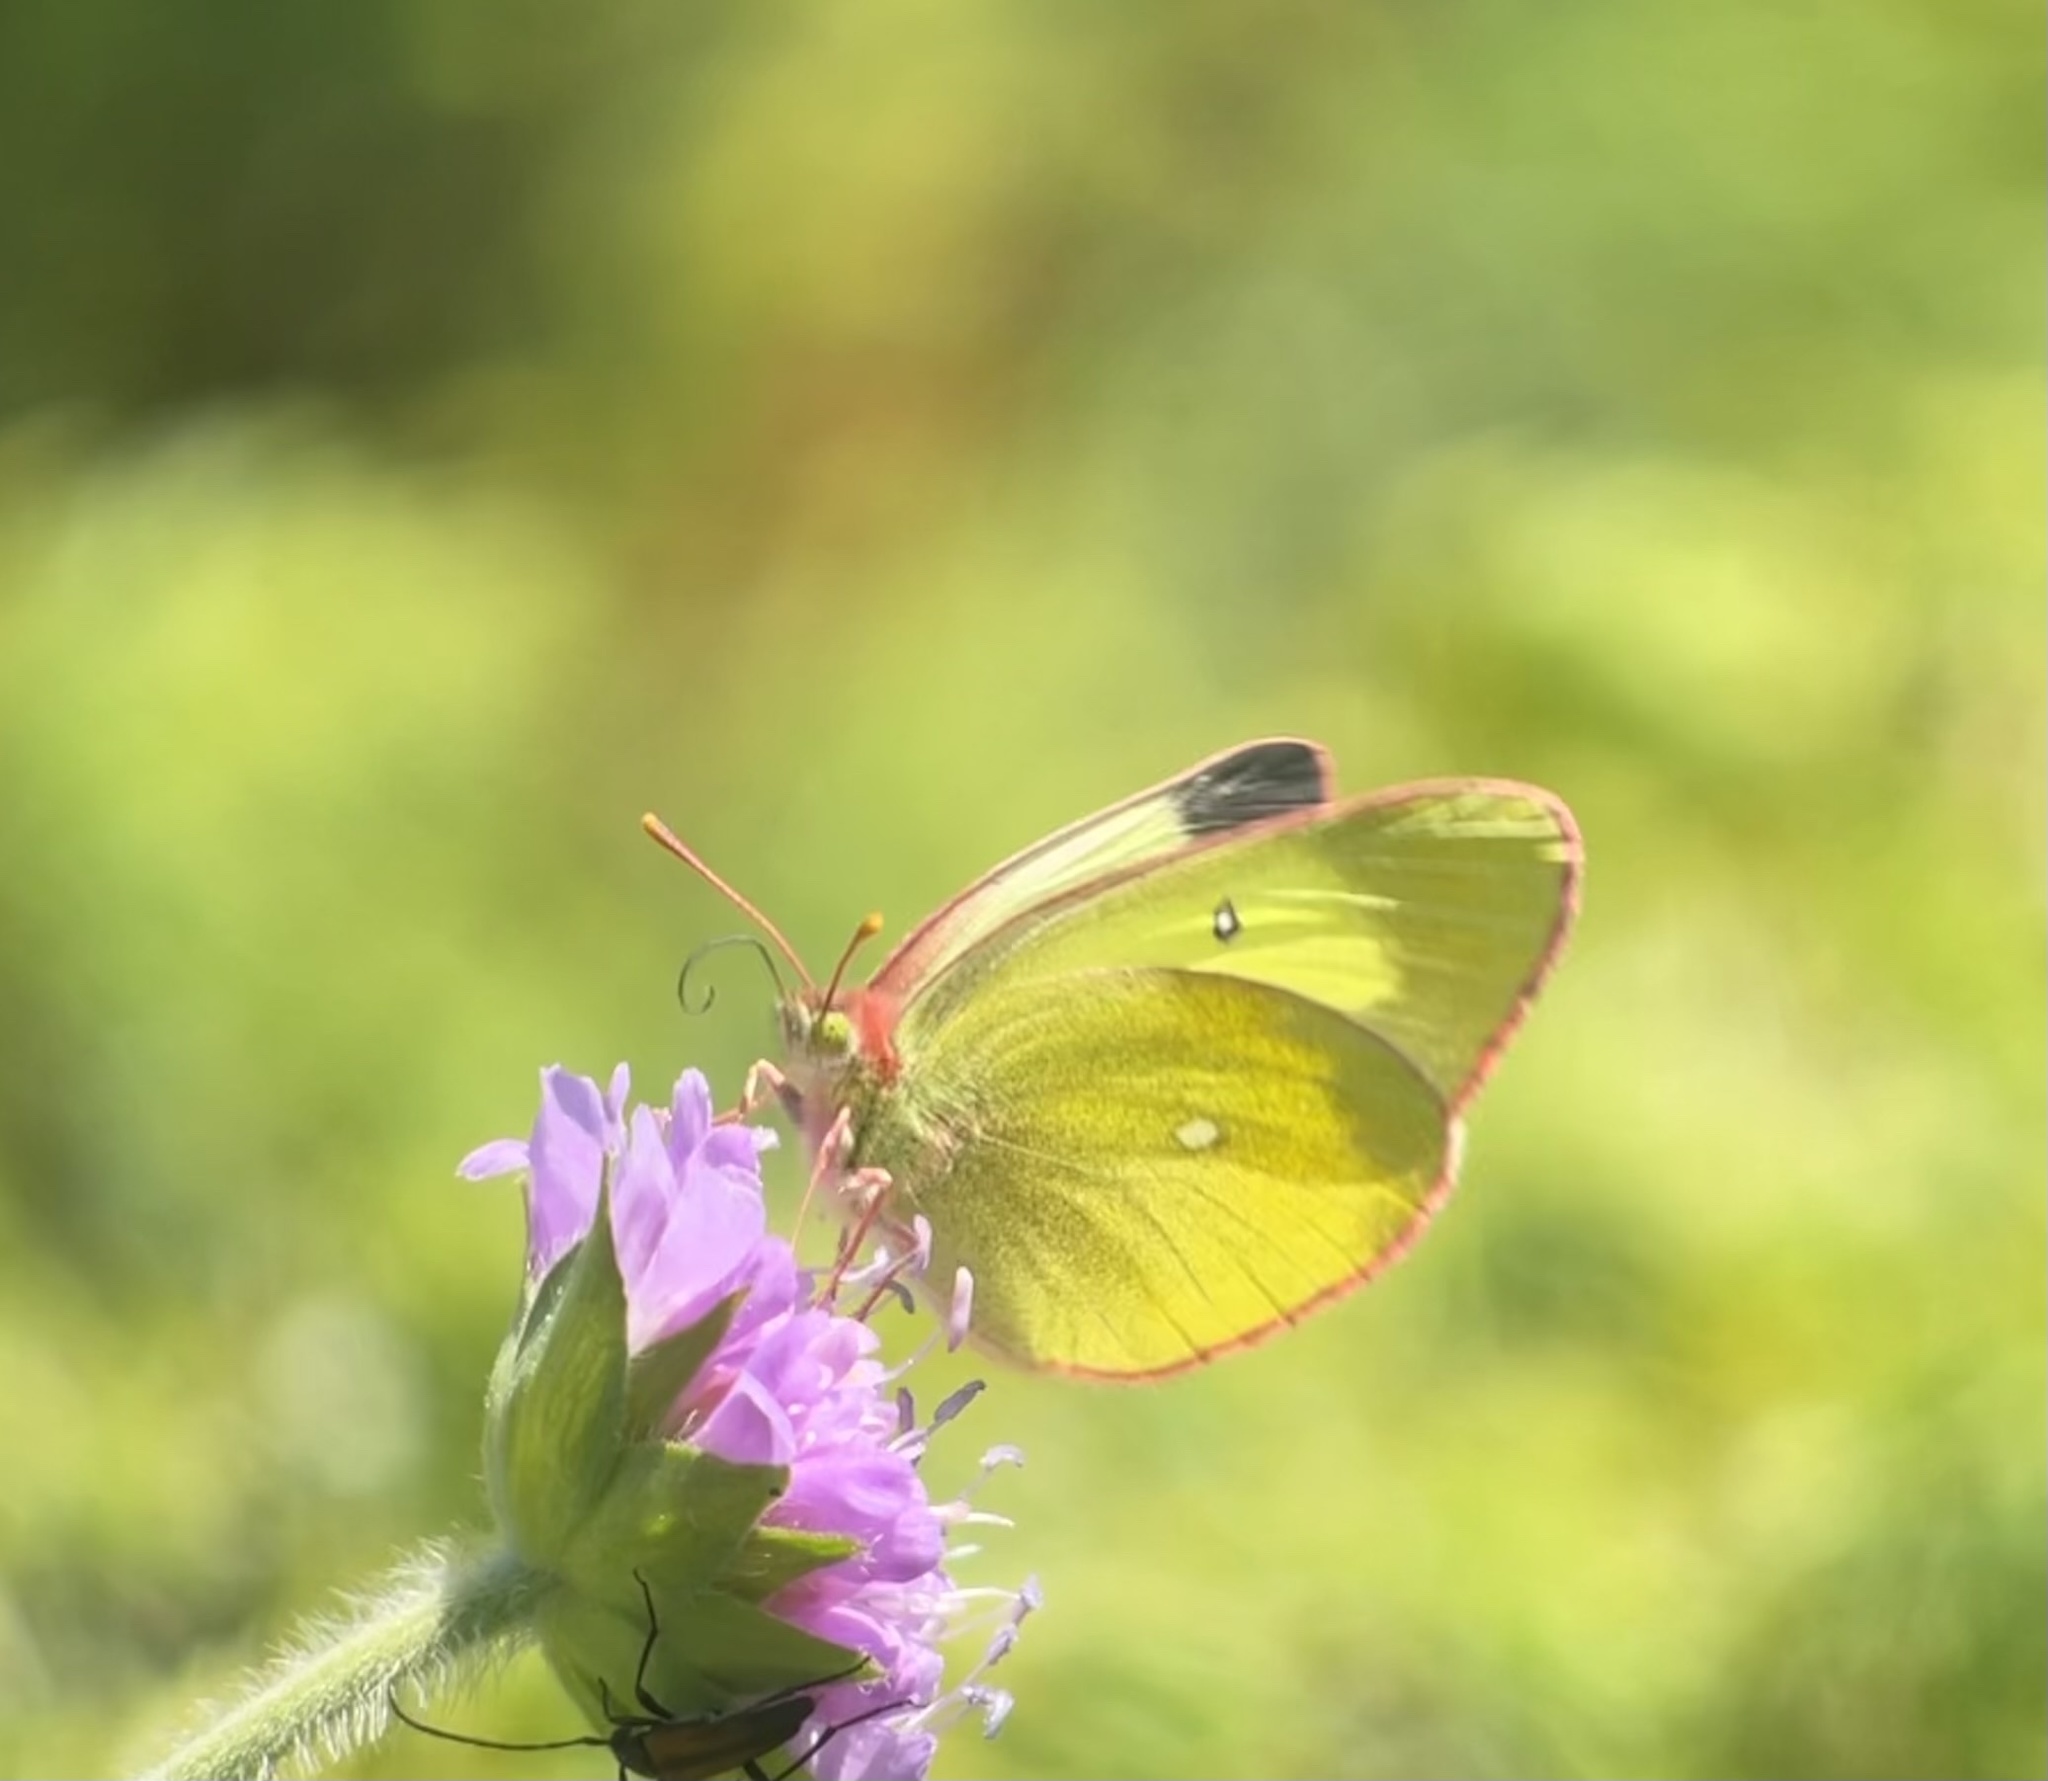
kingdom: Animalia
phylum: Arthropoda
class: Insecta
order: Lepidoptera
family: Pieridae
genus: Colias
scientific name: Colias palaeno
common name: Moorland clouded yellow
